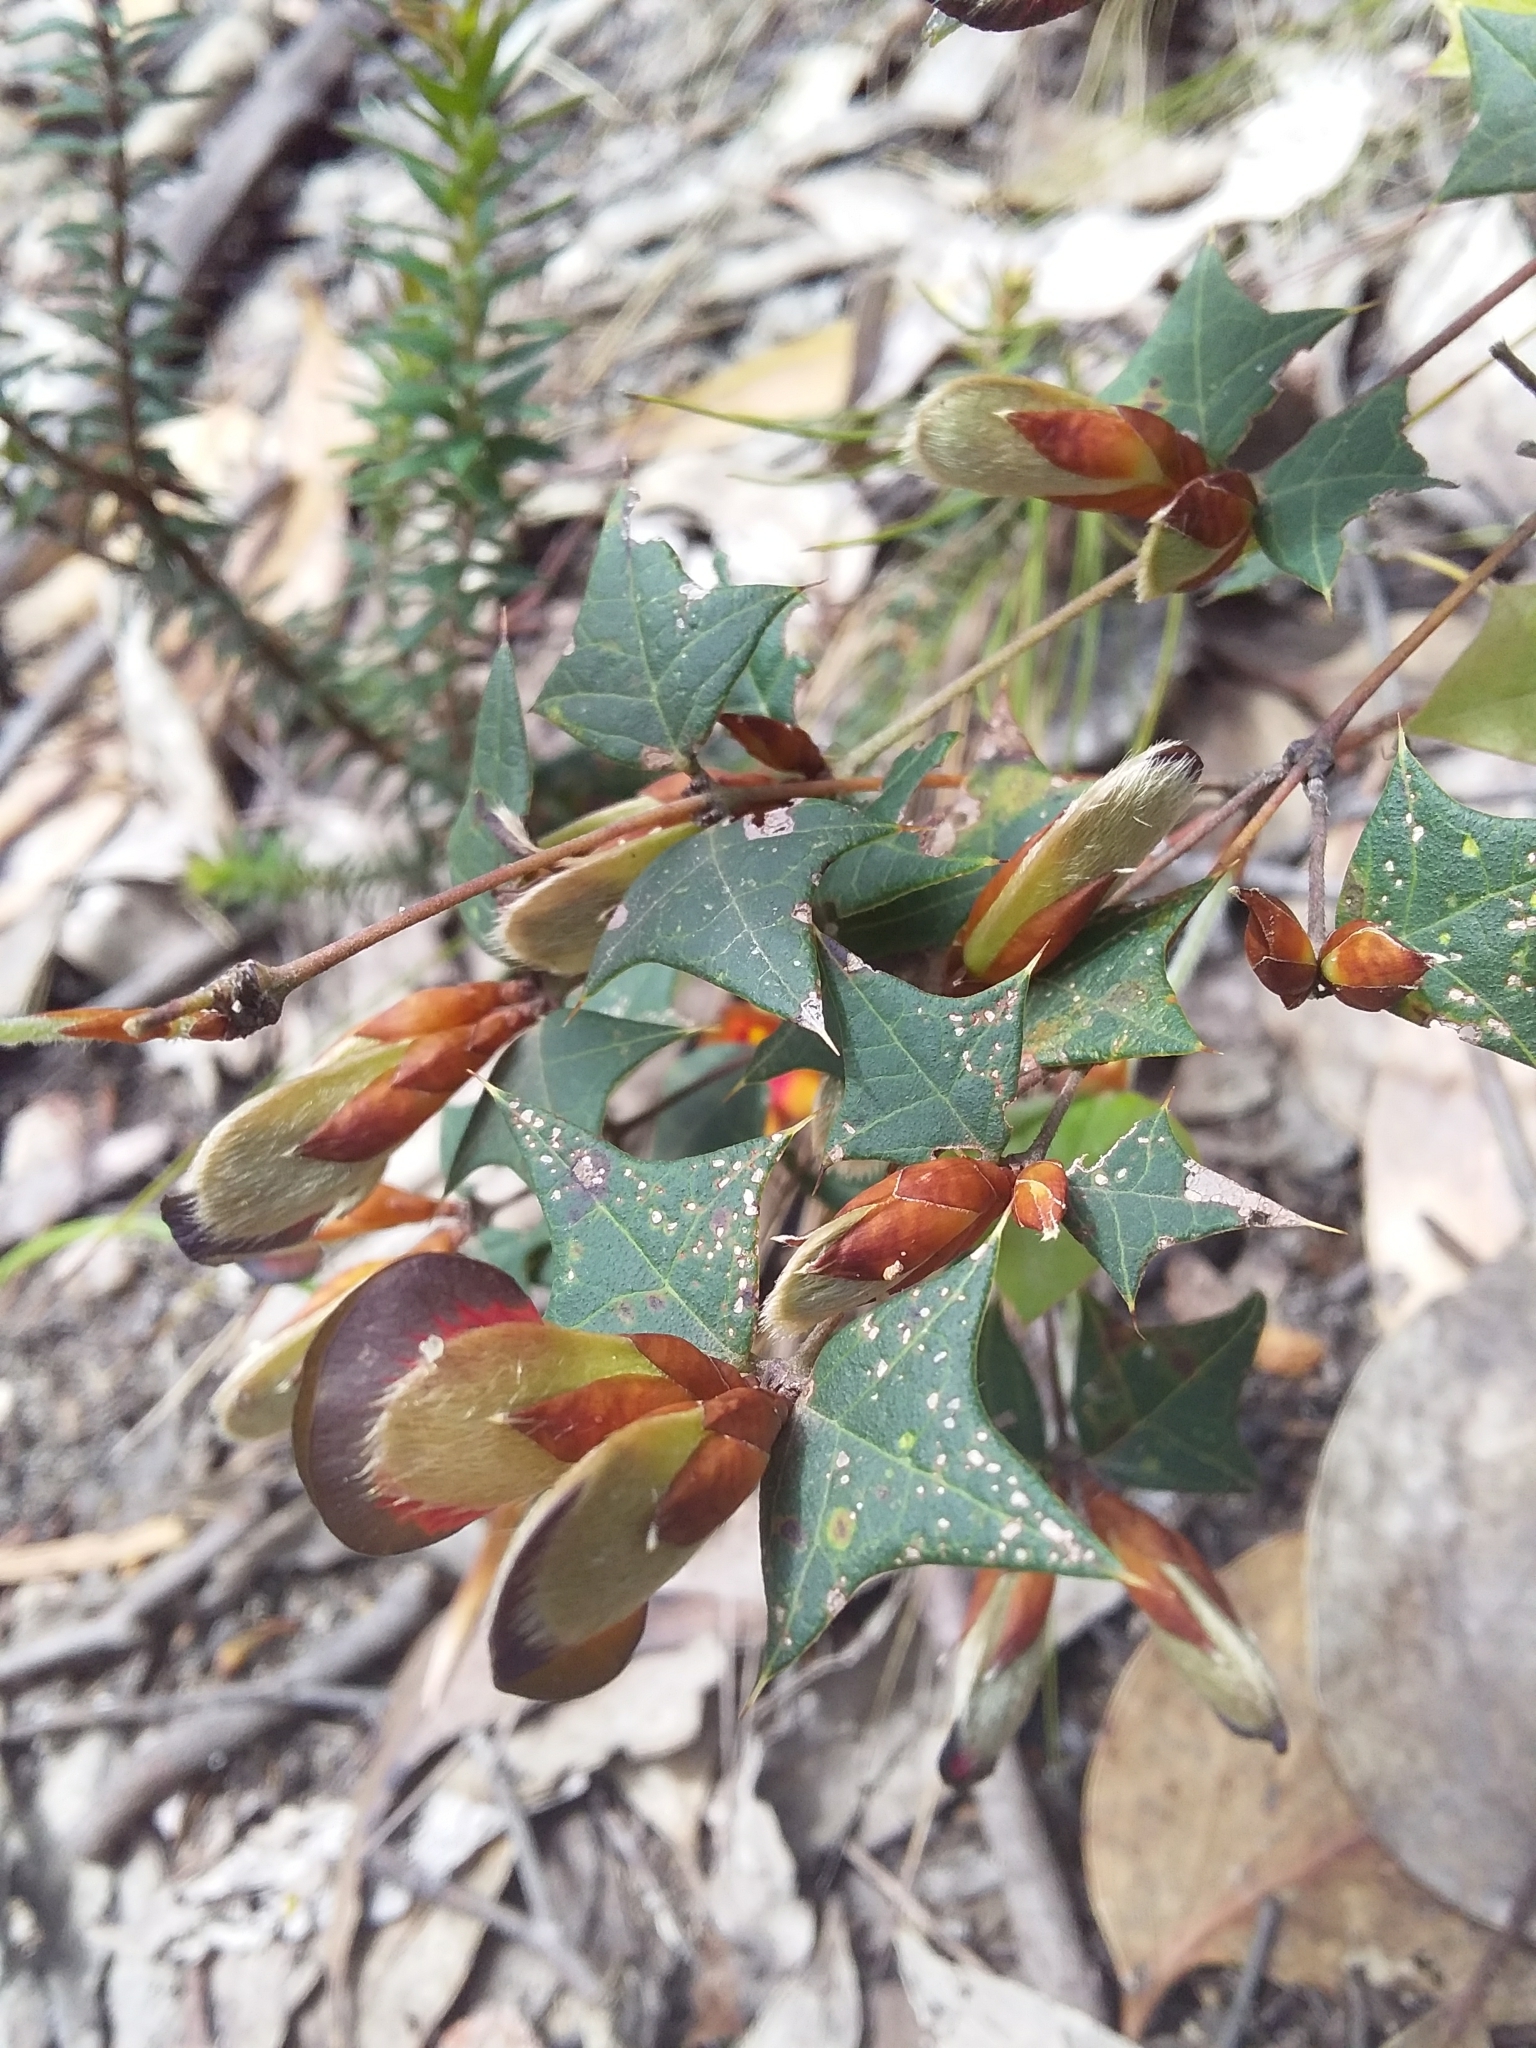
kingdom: Plantae
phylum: Tracheophyta
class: Magnoliopsida
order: Fabales
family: Fabaceae
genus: Platylobium
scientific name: Platylobium obtusangulum
